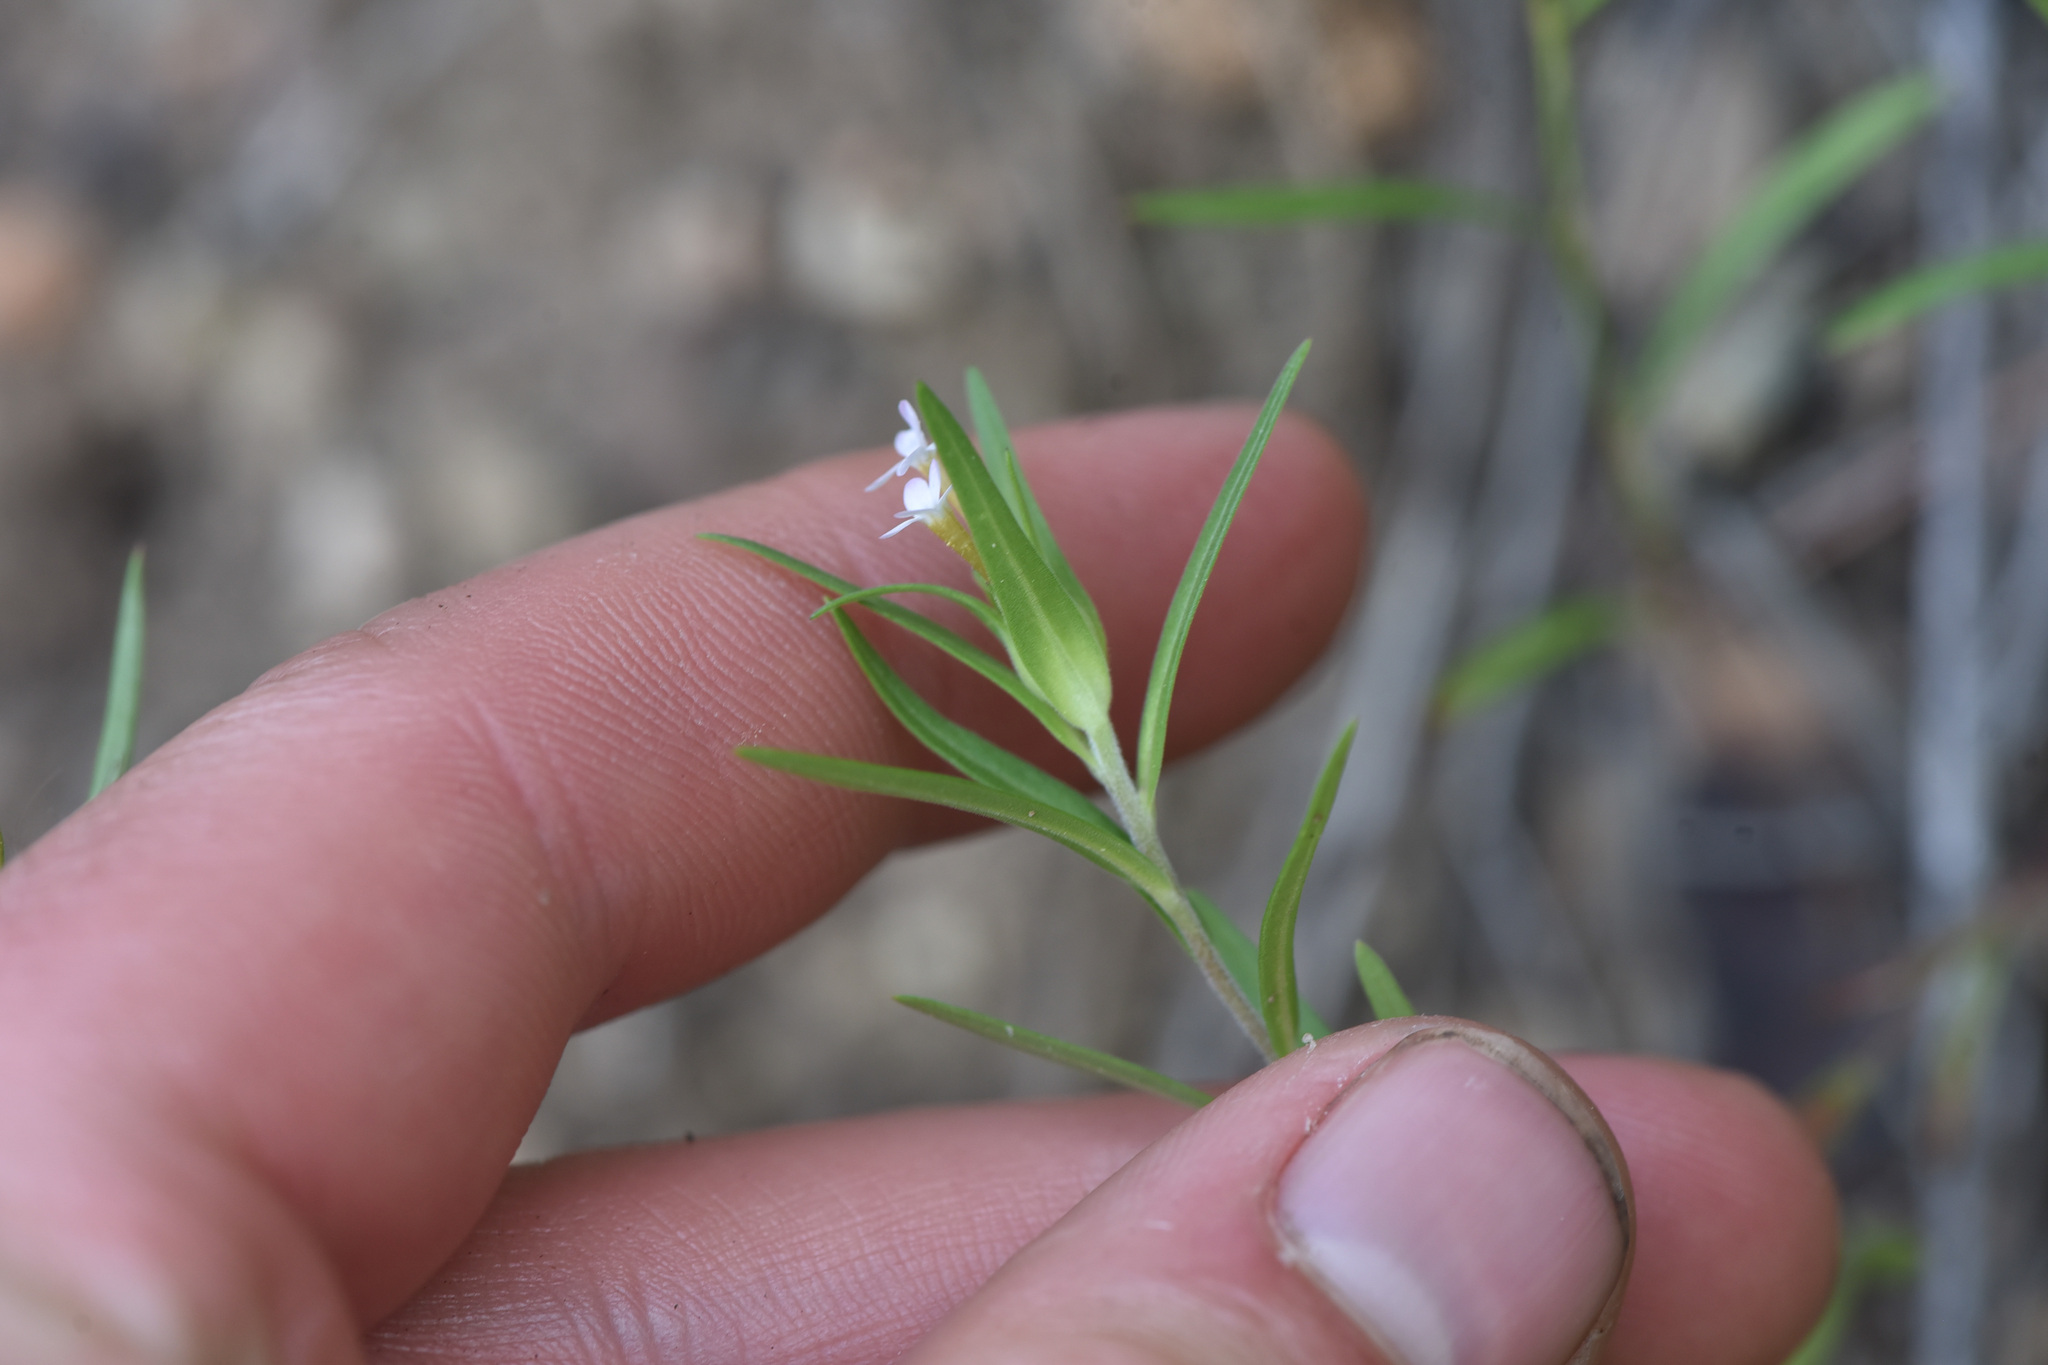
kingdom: Plantae
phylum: Tracheophyta
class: Magnoliopsida
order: Ericales
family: Polemoniaceae
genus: Collomia
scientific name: Collomia linearis
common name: Tiny trumpet
